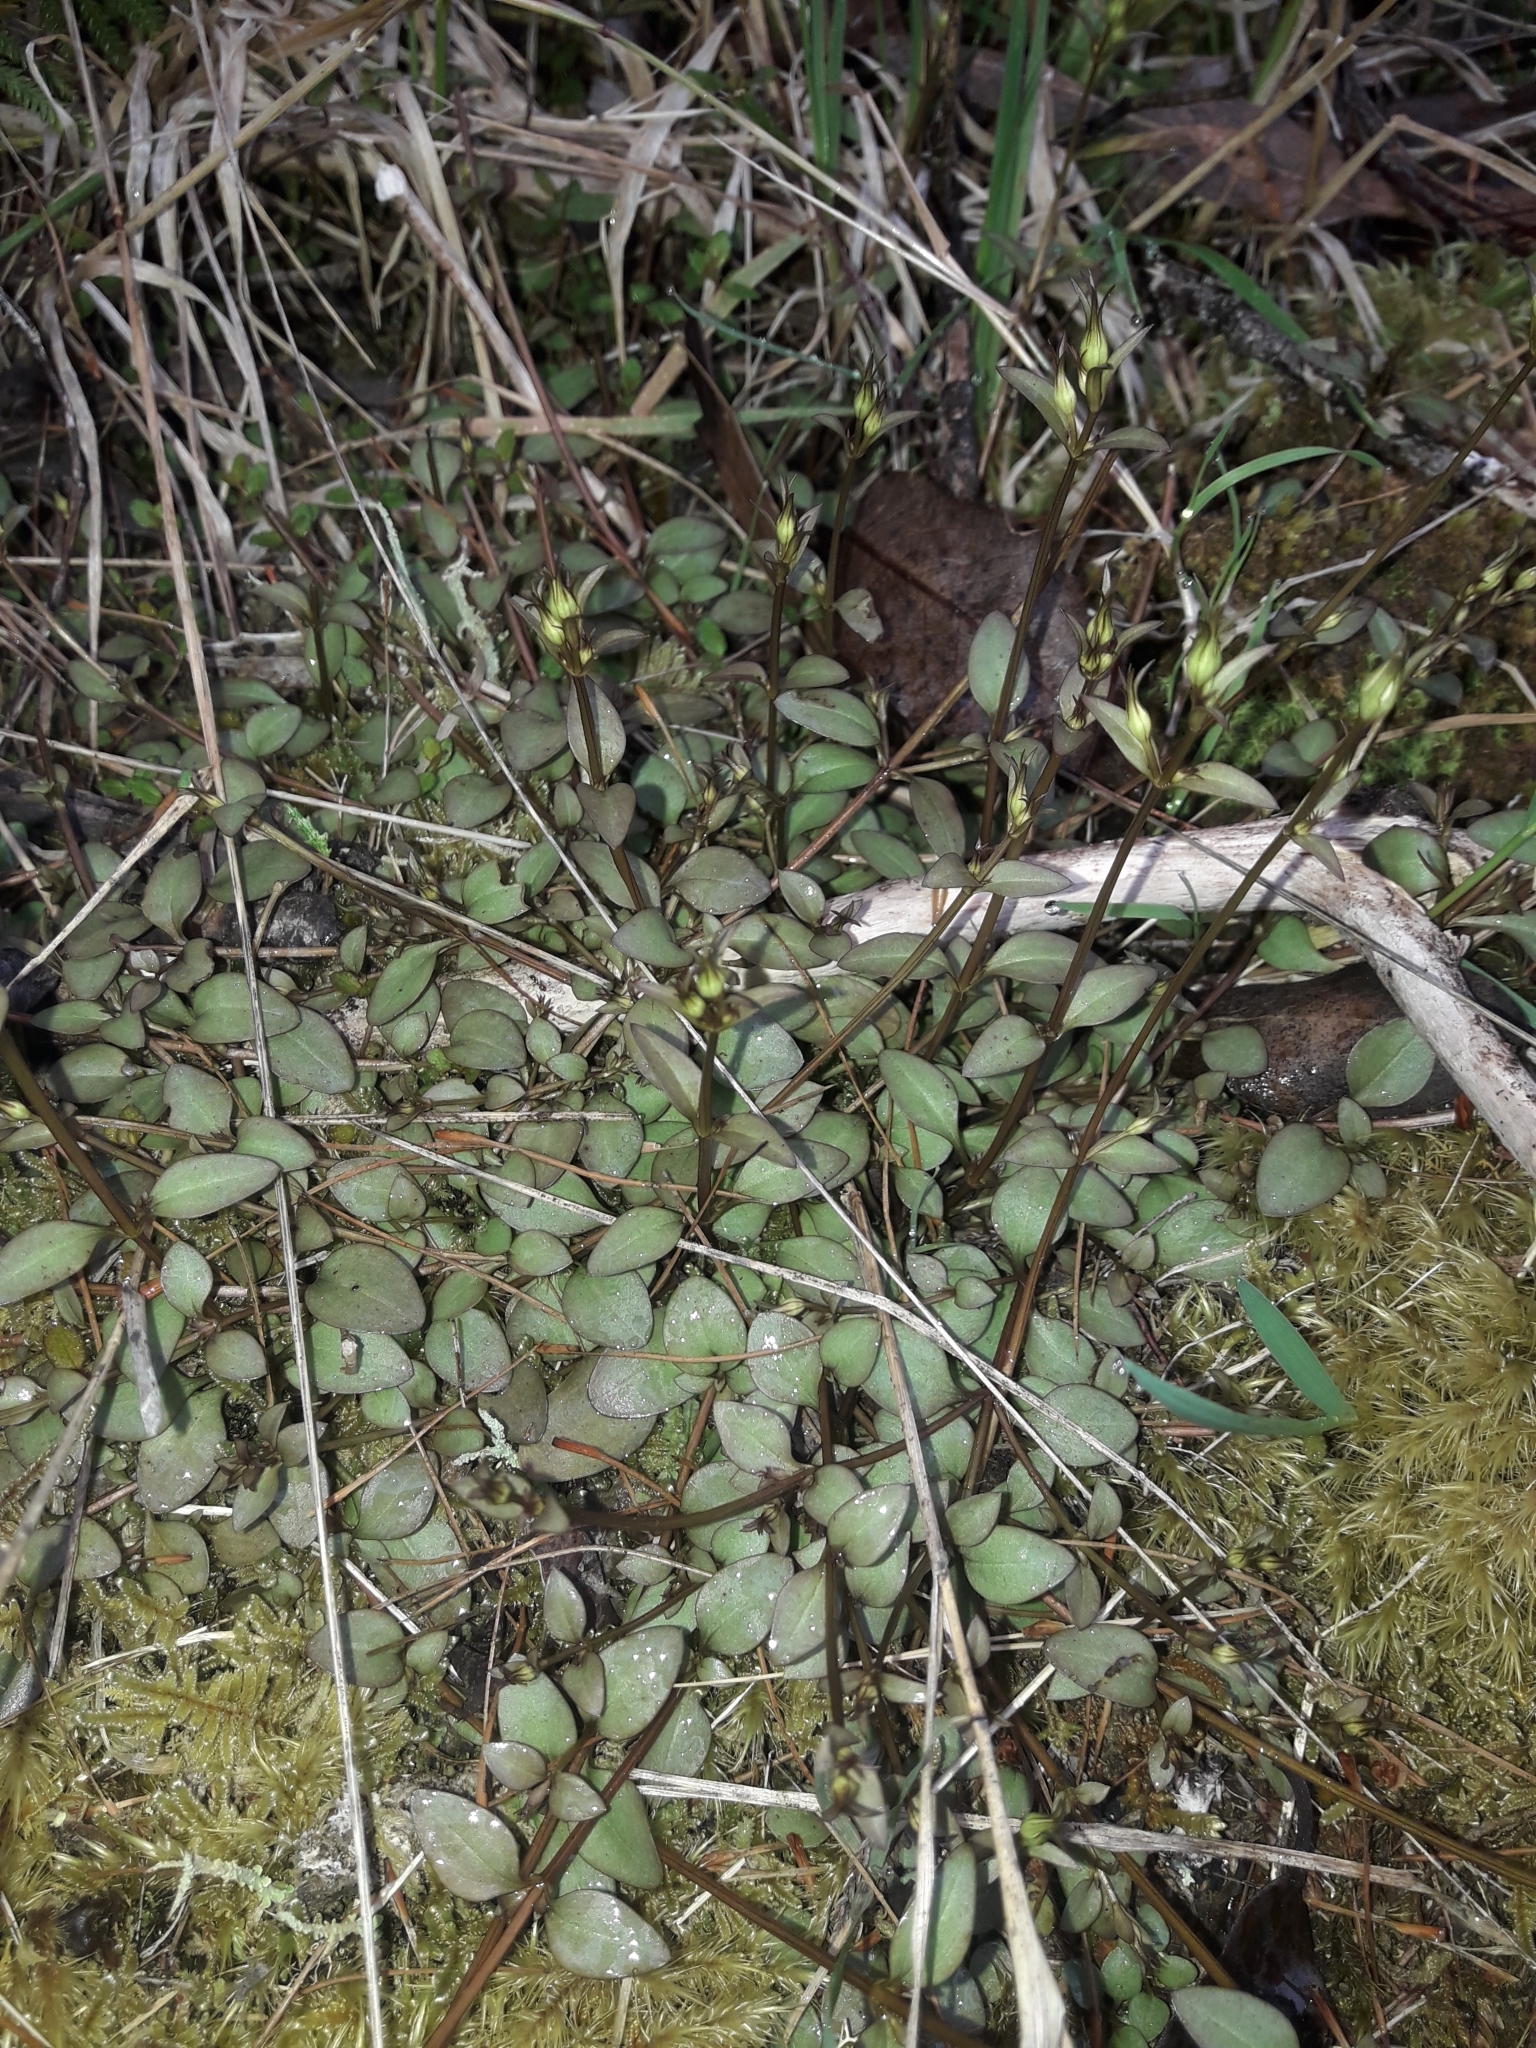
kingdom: Plantae
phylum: Tracheophyta
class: Magnoliopsida
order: Gentianales
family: Gentianaceae
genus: Gentianella
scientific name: Gentianella grisebachii
